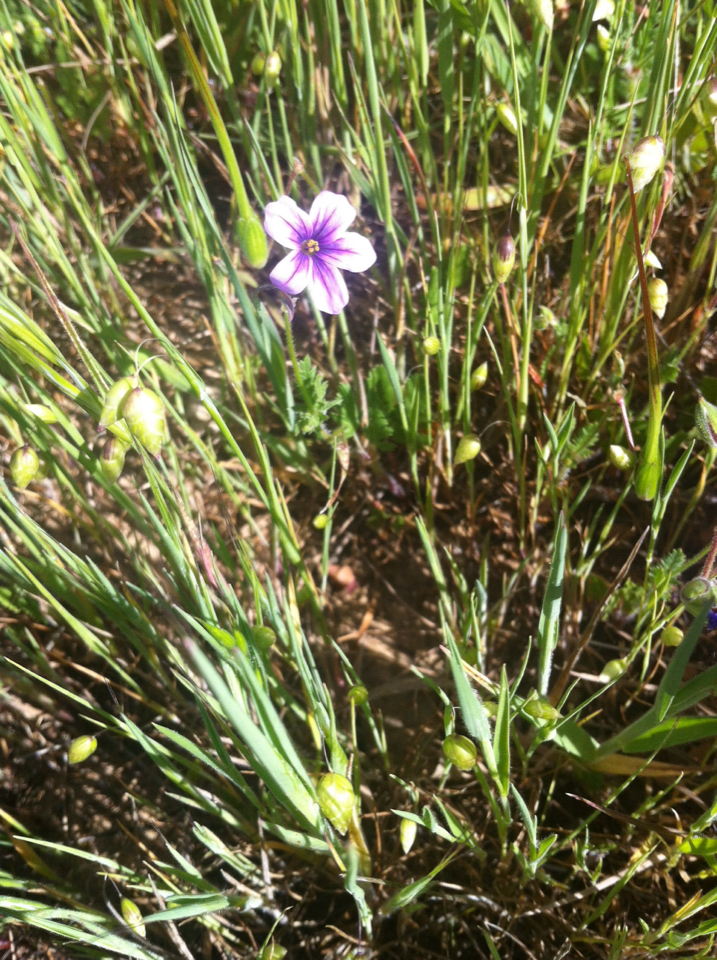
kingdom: Plantae
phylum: Tracheophyta
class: Magnoliopsida
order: Geraniales
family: Geraniaceae
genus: Erodium
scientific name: Erodium botrys
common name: Mediterranean stork's-bill
